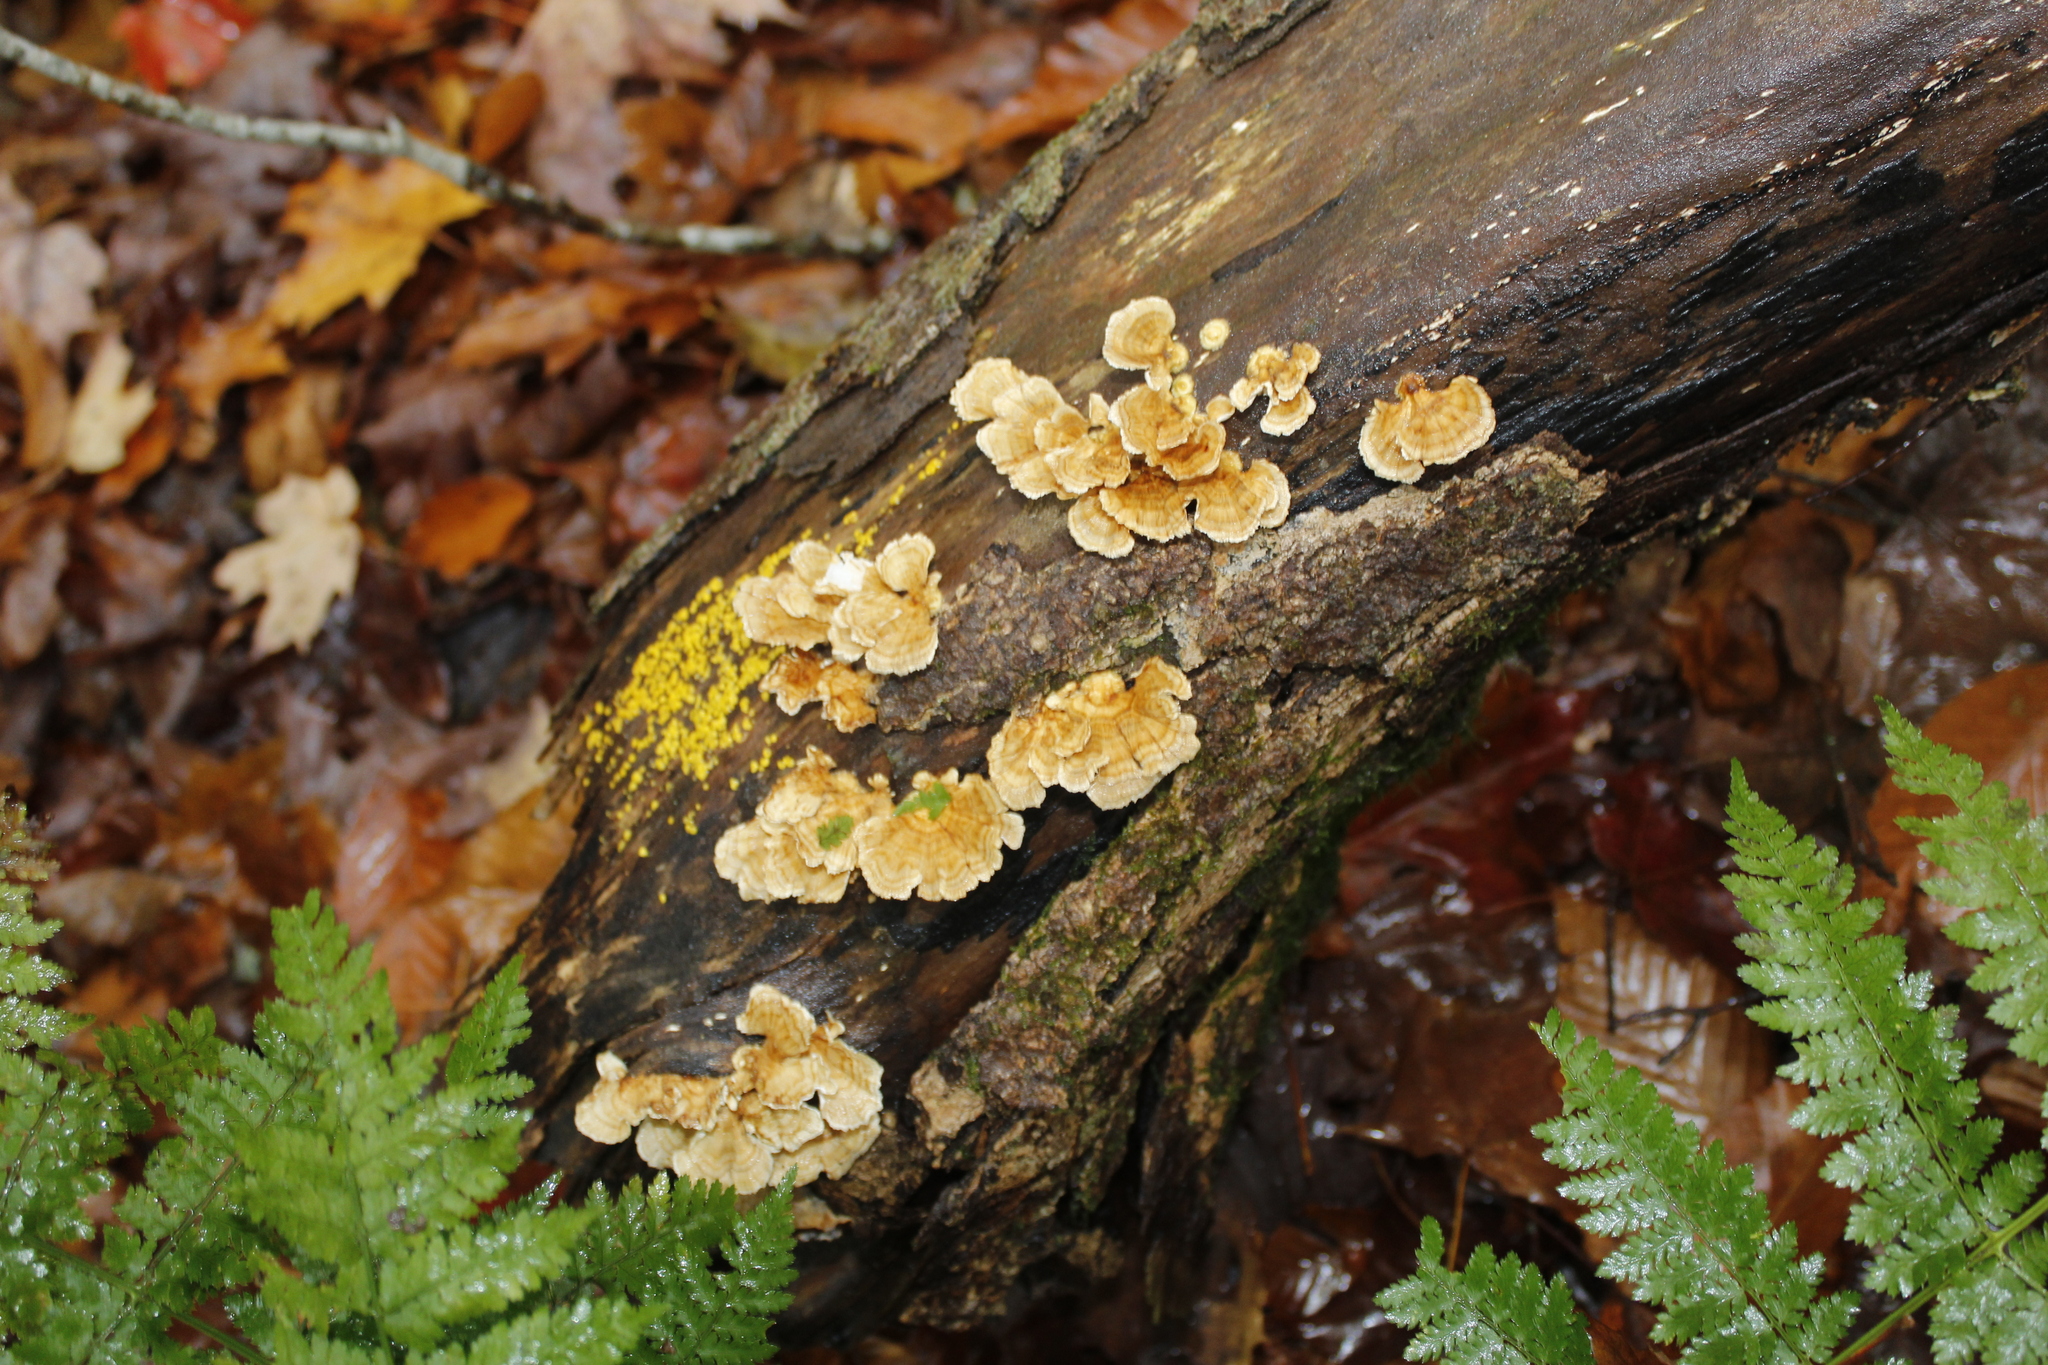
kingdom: Fungi
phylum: Basidiomycota
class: Agaricomycetes
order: Russulales
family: Stereaceae
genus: Stereum
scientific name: Stereum complicatum
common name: Crowded parchment
